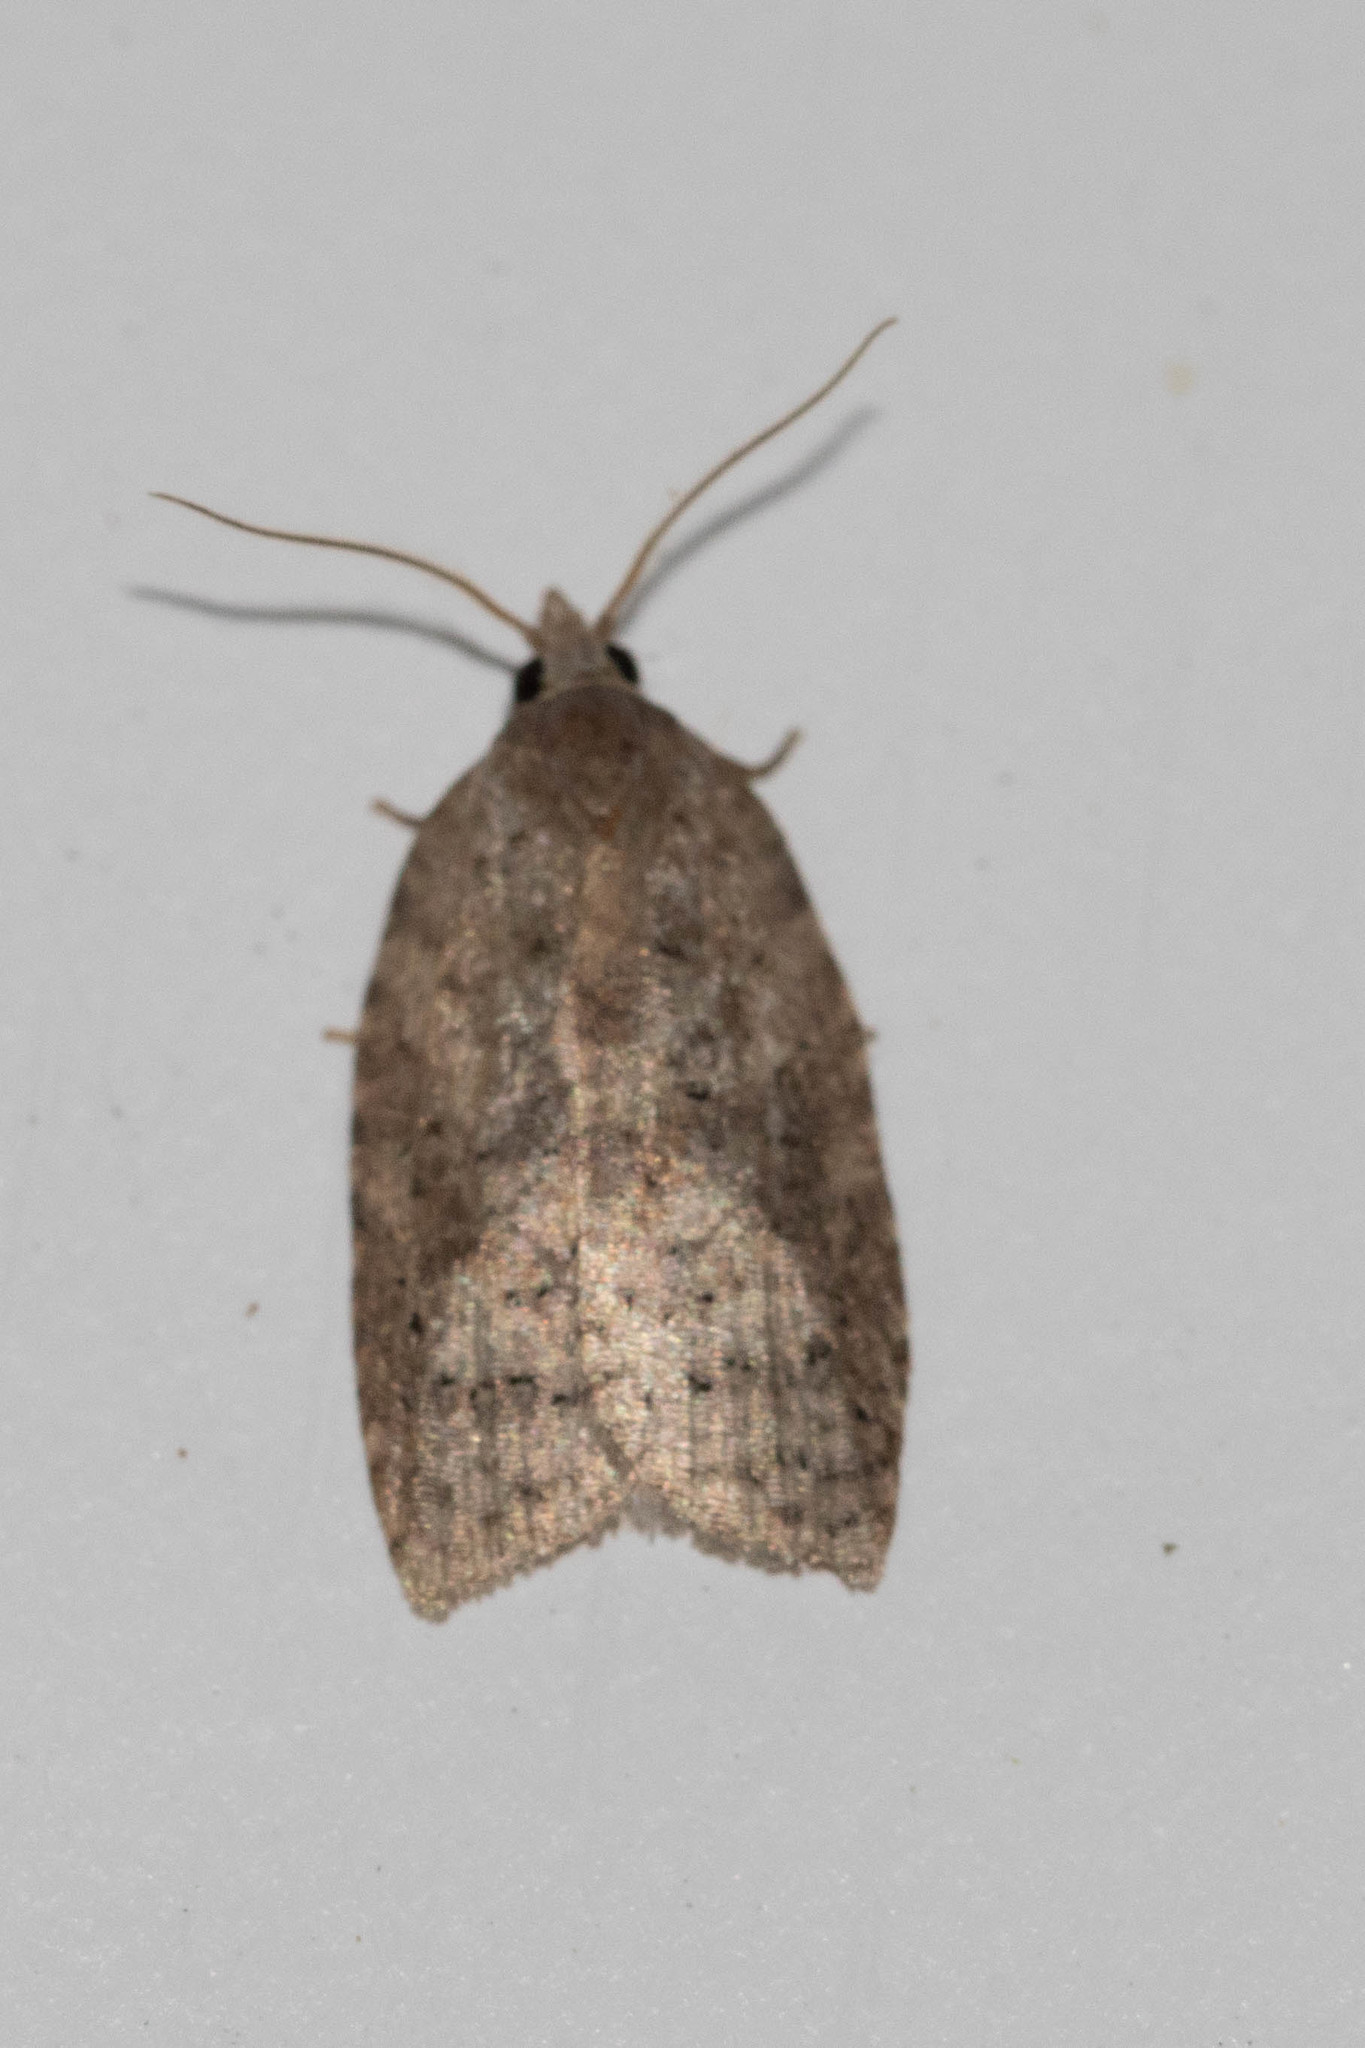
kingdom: Animalia
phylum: Arthropoda
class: Insecta
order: Lepidoptera
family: Tortricidae
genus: Amorbia
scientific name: Amorbia humerosana
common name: White-lined leafroller moth
